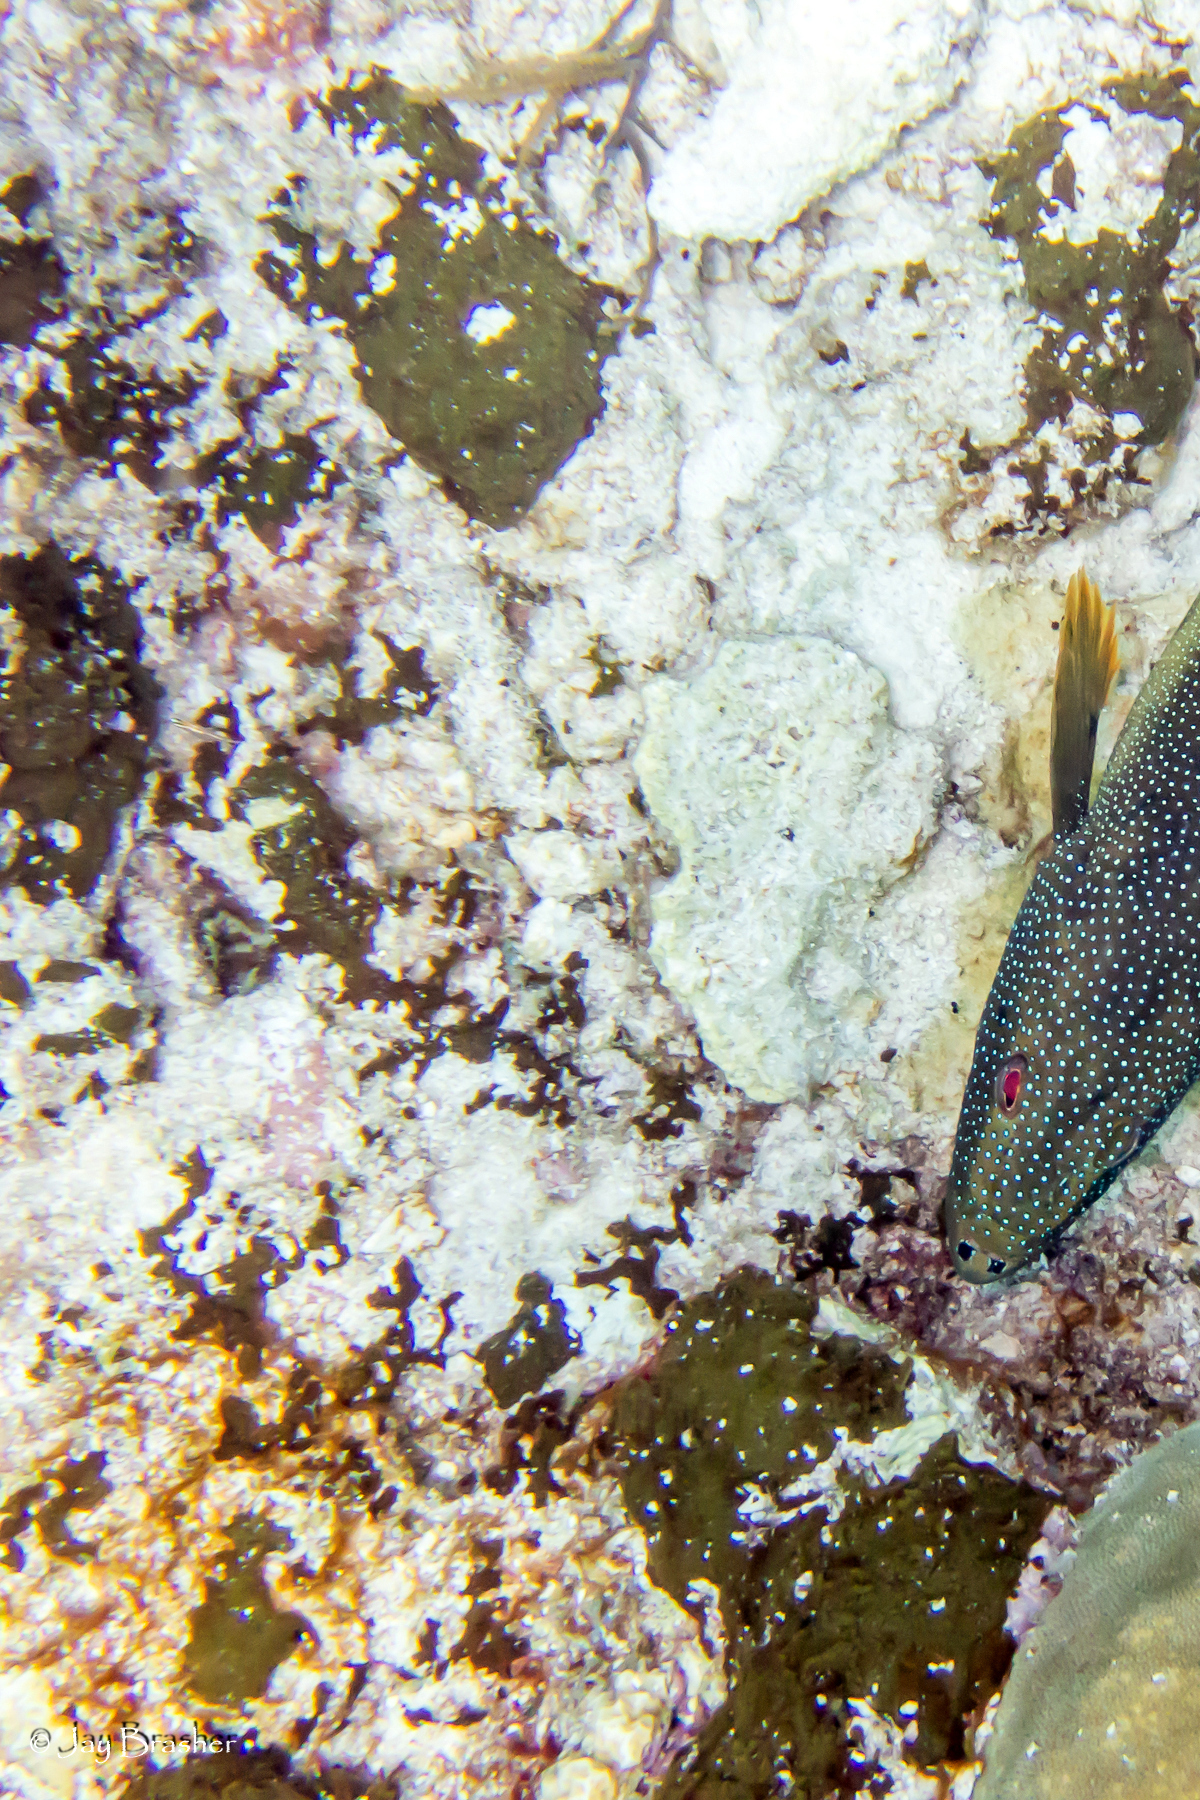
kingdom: Animalia
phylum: Porifera
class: Demospongiae
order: Bubarida
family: Dictyonellidae
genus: Dictyonella
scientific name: Dictyonella funicularis
